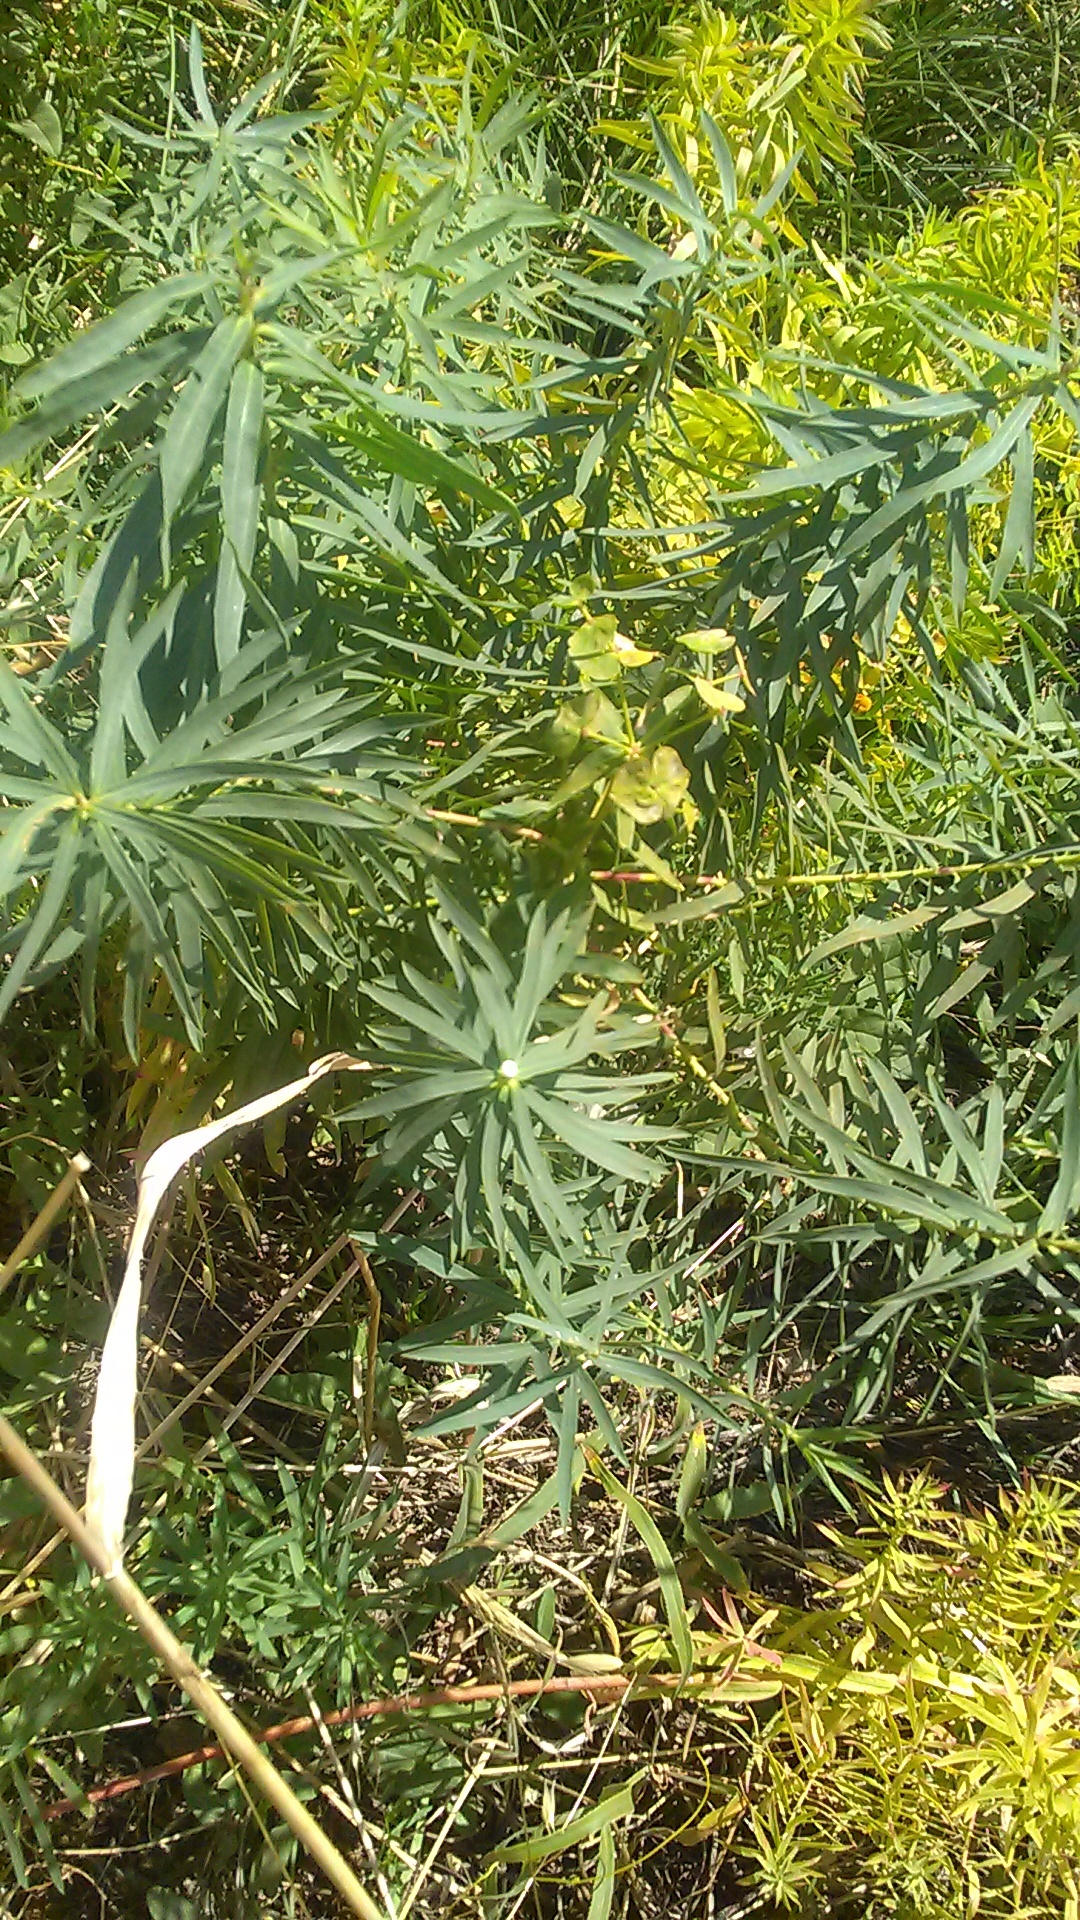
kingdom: Plantae
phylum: Tracheophyta
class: Magnoliopsida
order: Malpighiales
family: Euphorbiaceae
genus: Euphorbia
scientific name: Euphorbia virgata
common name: Leafy spurge
